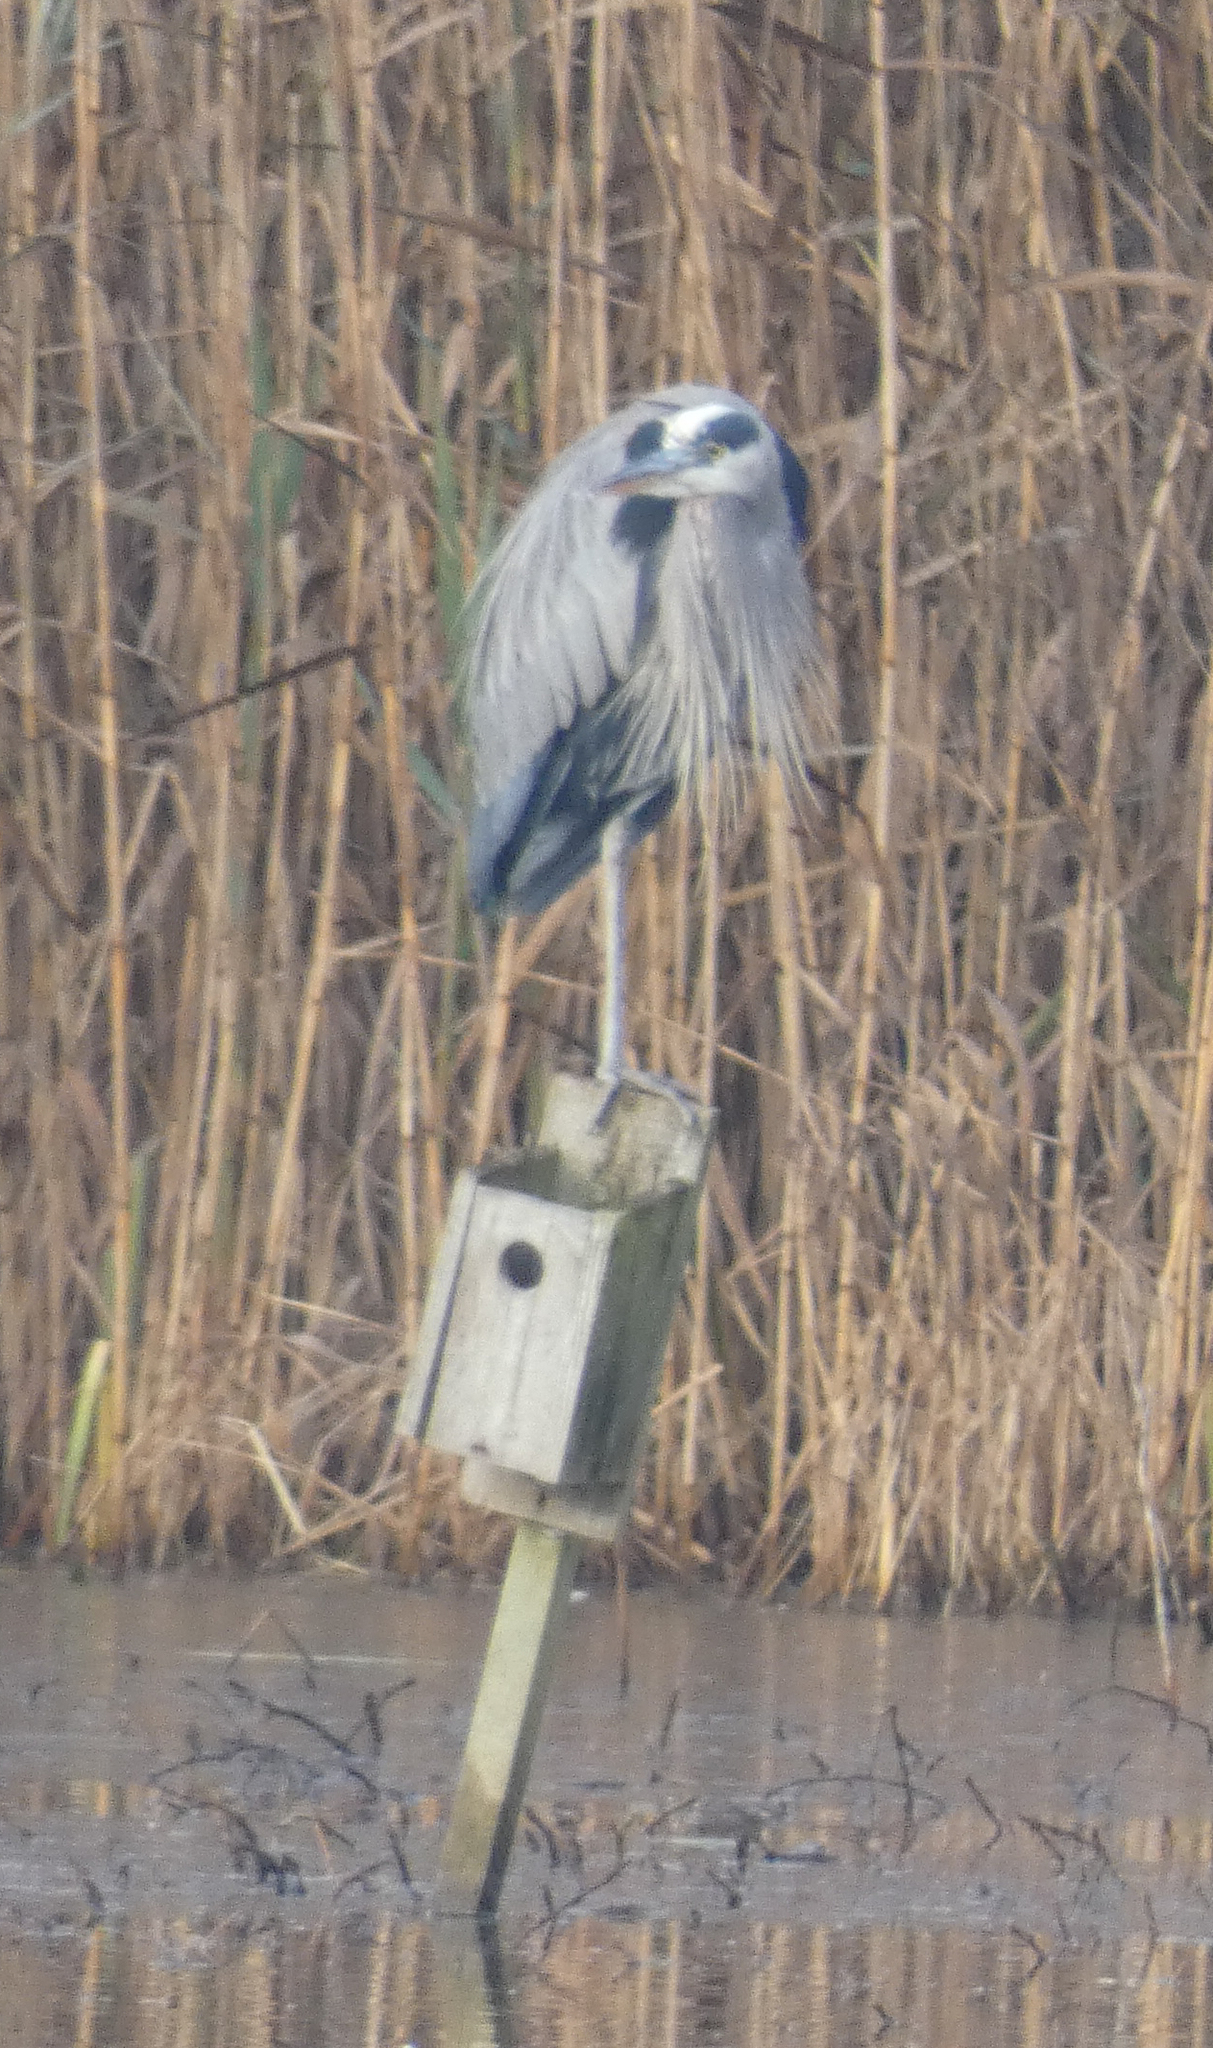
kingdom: Animalia
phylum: Chordata
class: Aves
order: Pelecaniformes
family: Ardeidae
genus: Ardea
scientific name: Ardea herodias
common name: Great blue heron
